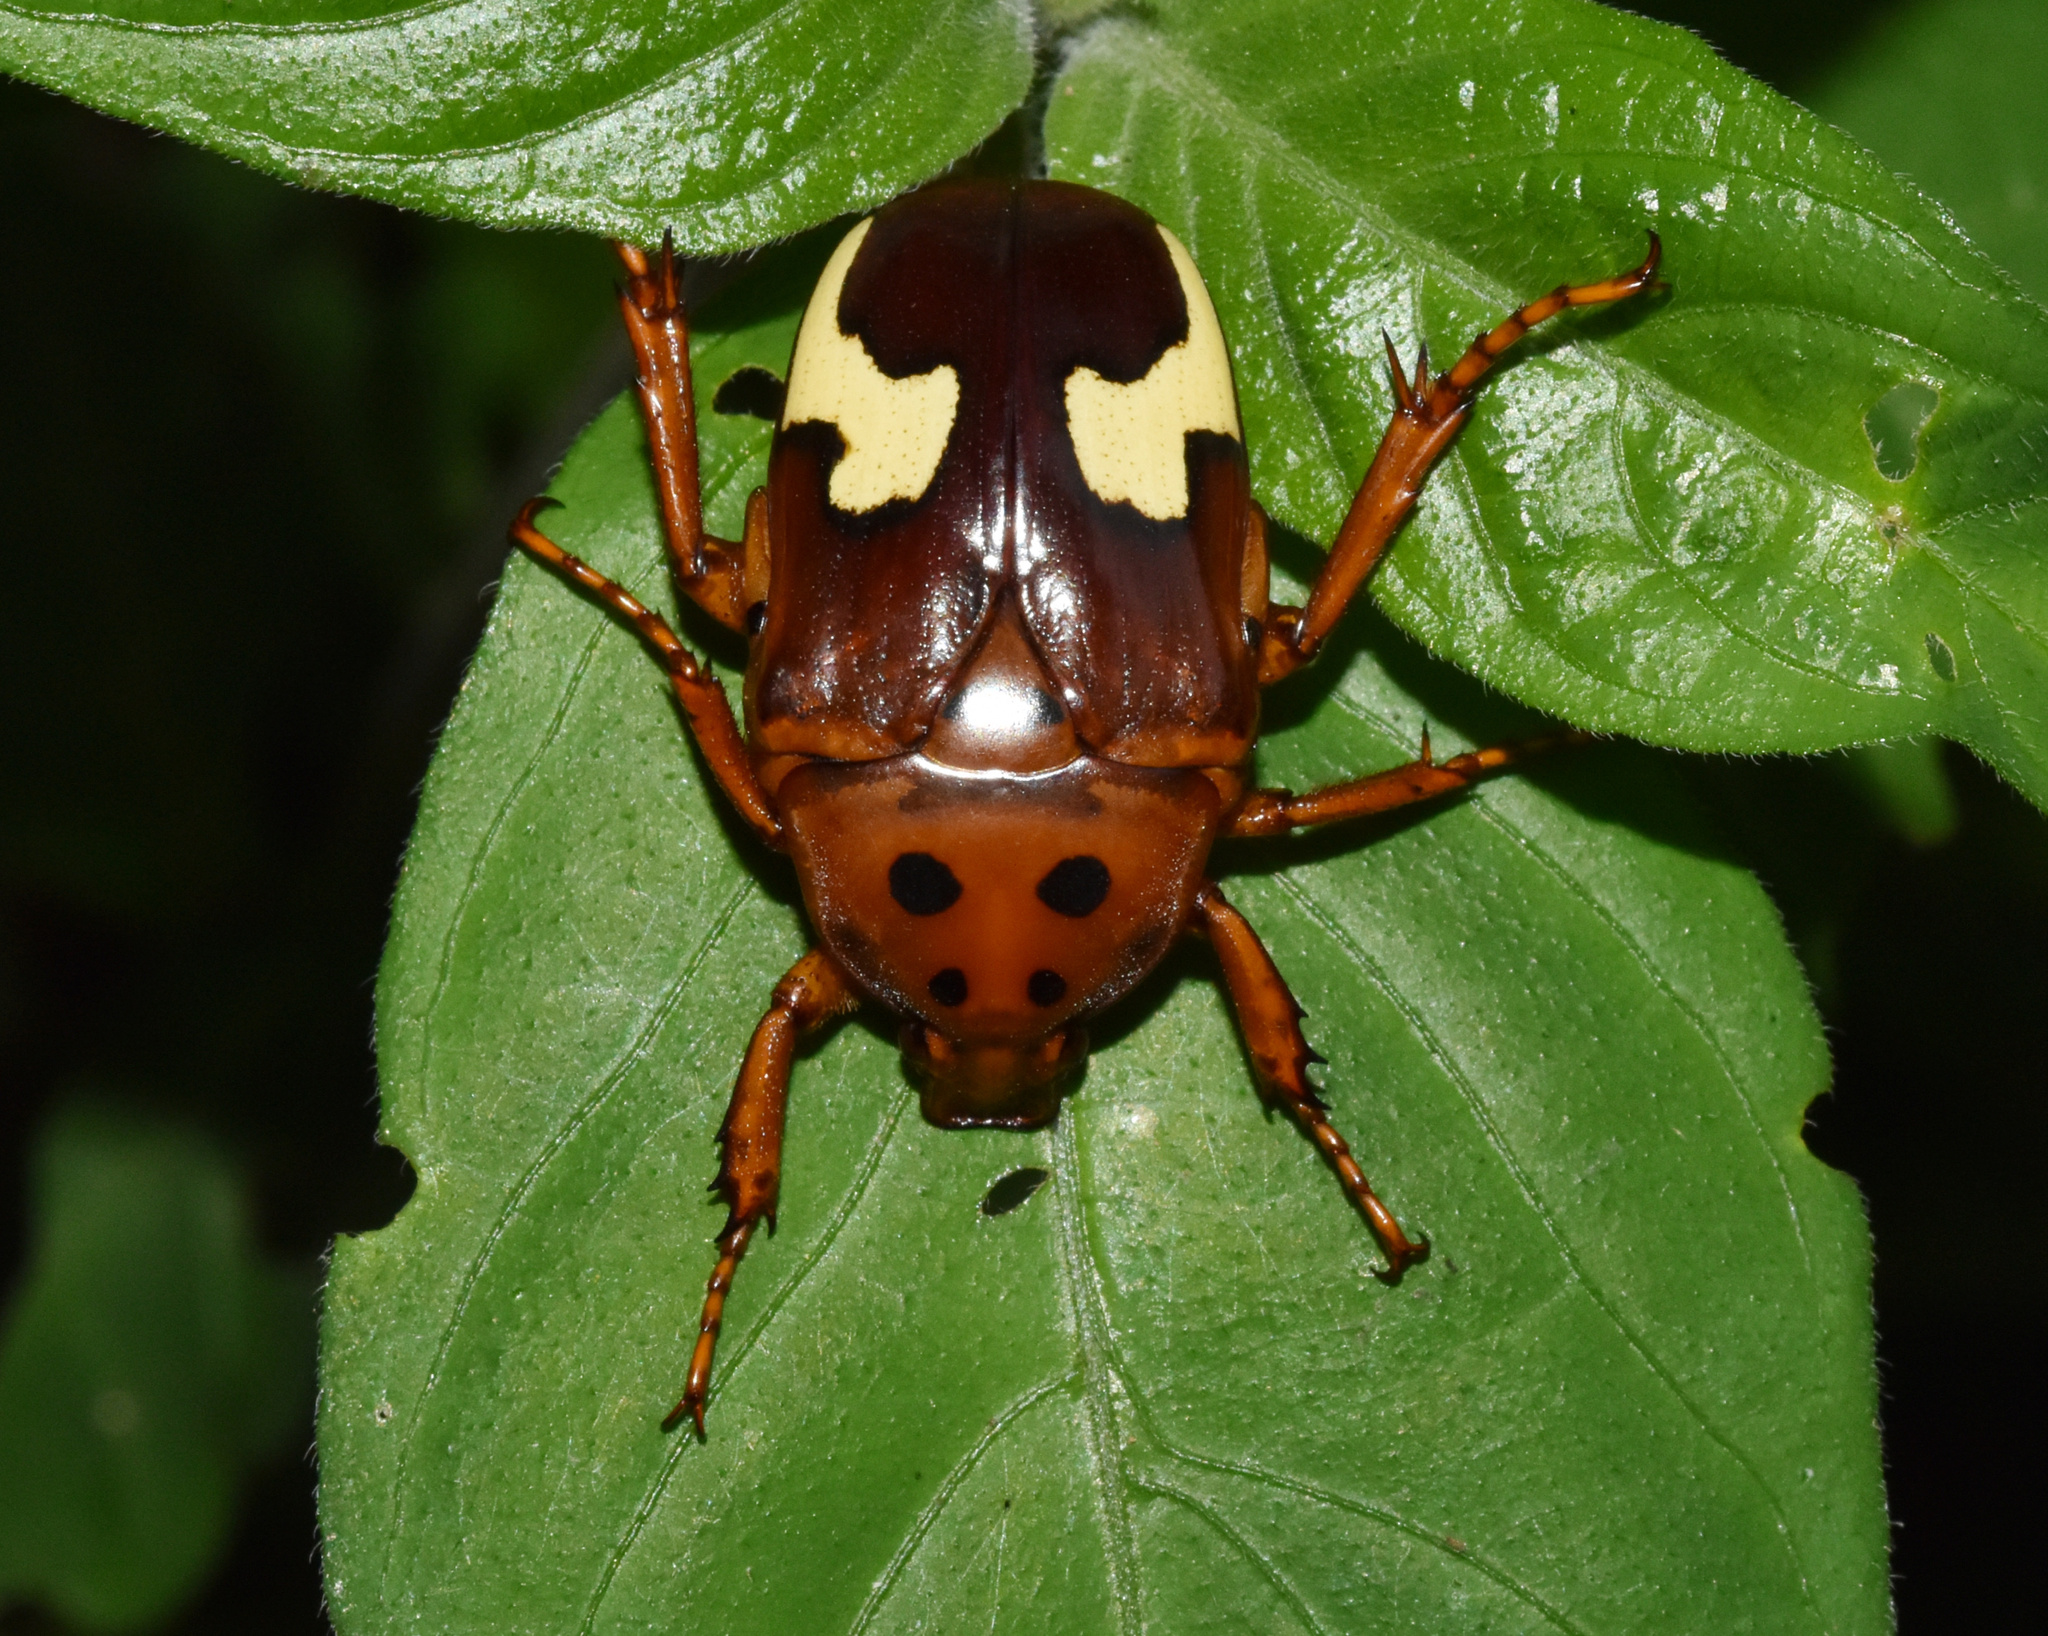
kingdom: Animalia
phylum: Arthropoda
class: Insecta
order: Coleoptera
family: Scarabaeidae
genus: Anisorrhina
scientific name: Anisorrhina flavomaculata
